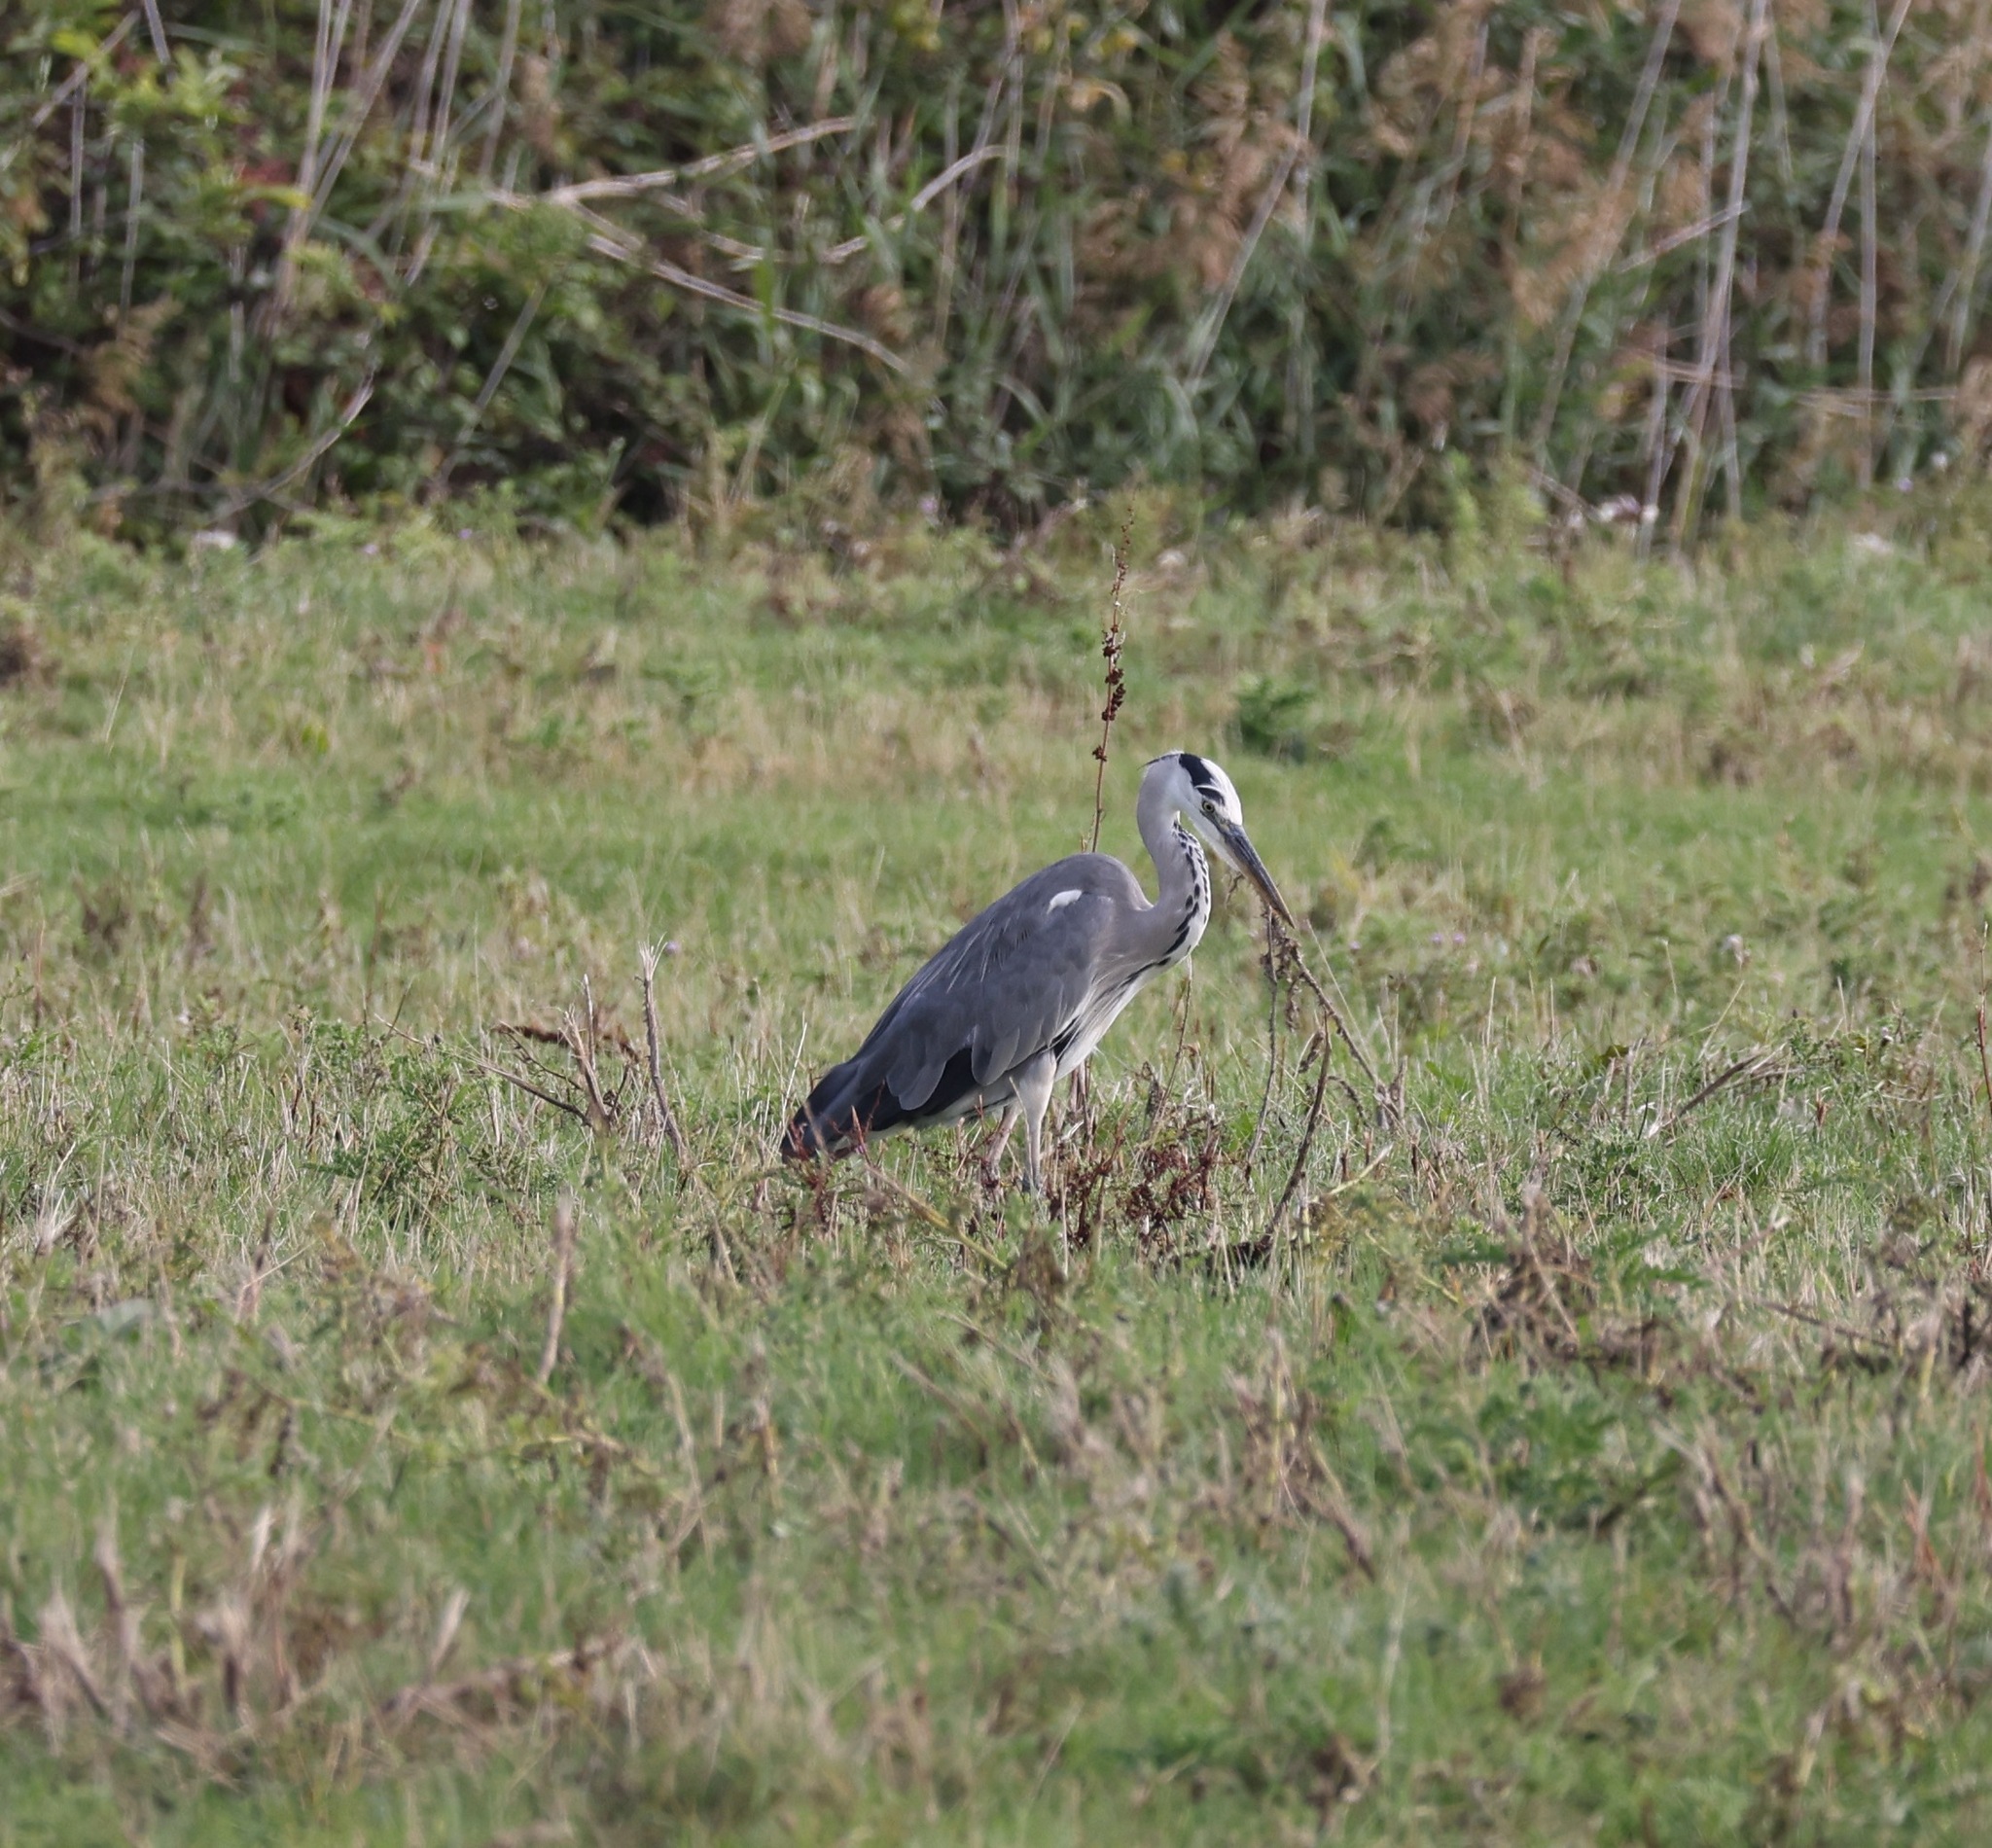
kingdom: Animalia
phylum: Chordata
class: Aves
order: Pelecaniformes
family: Ardeidae
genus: Ardea
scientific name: Ardea cinerea
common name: Grey heron
